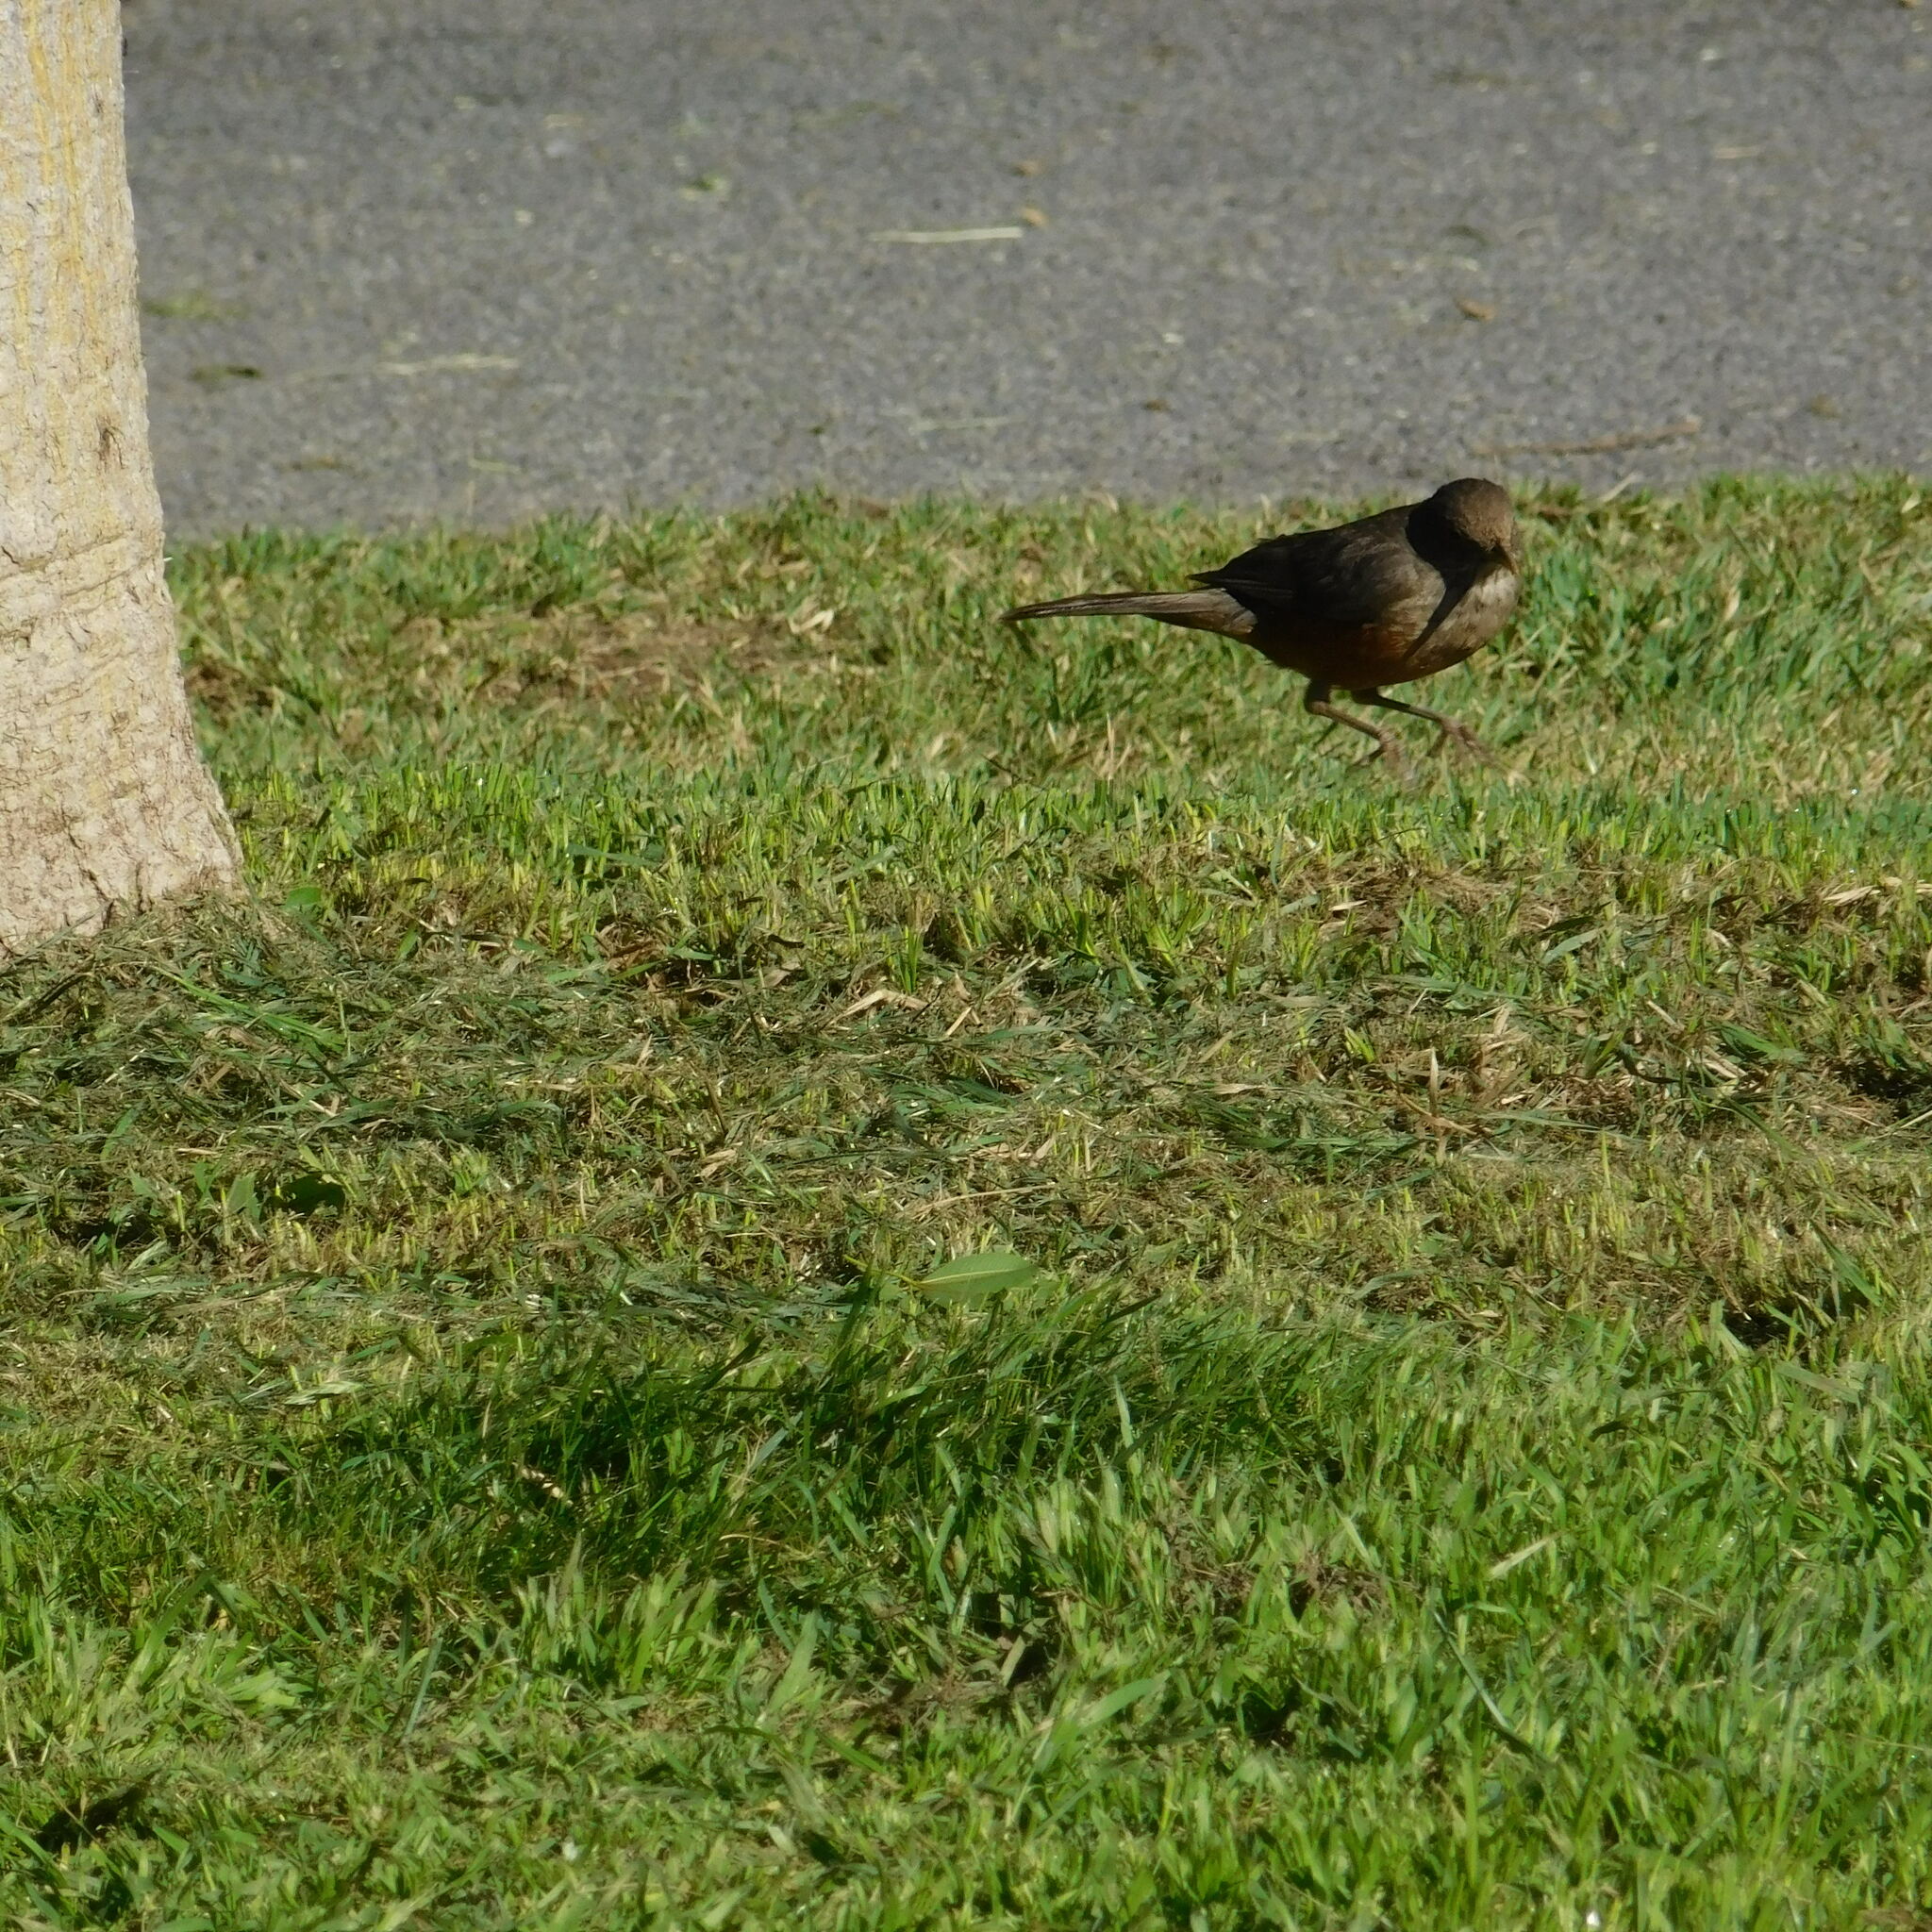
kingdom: Animalia
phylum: Chordata
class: Aves
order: Passeriformes
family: Turdidae
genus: Turdus
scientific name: Turdus rufiventris
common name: Rufous-bellied thrush
